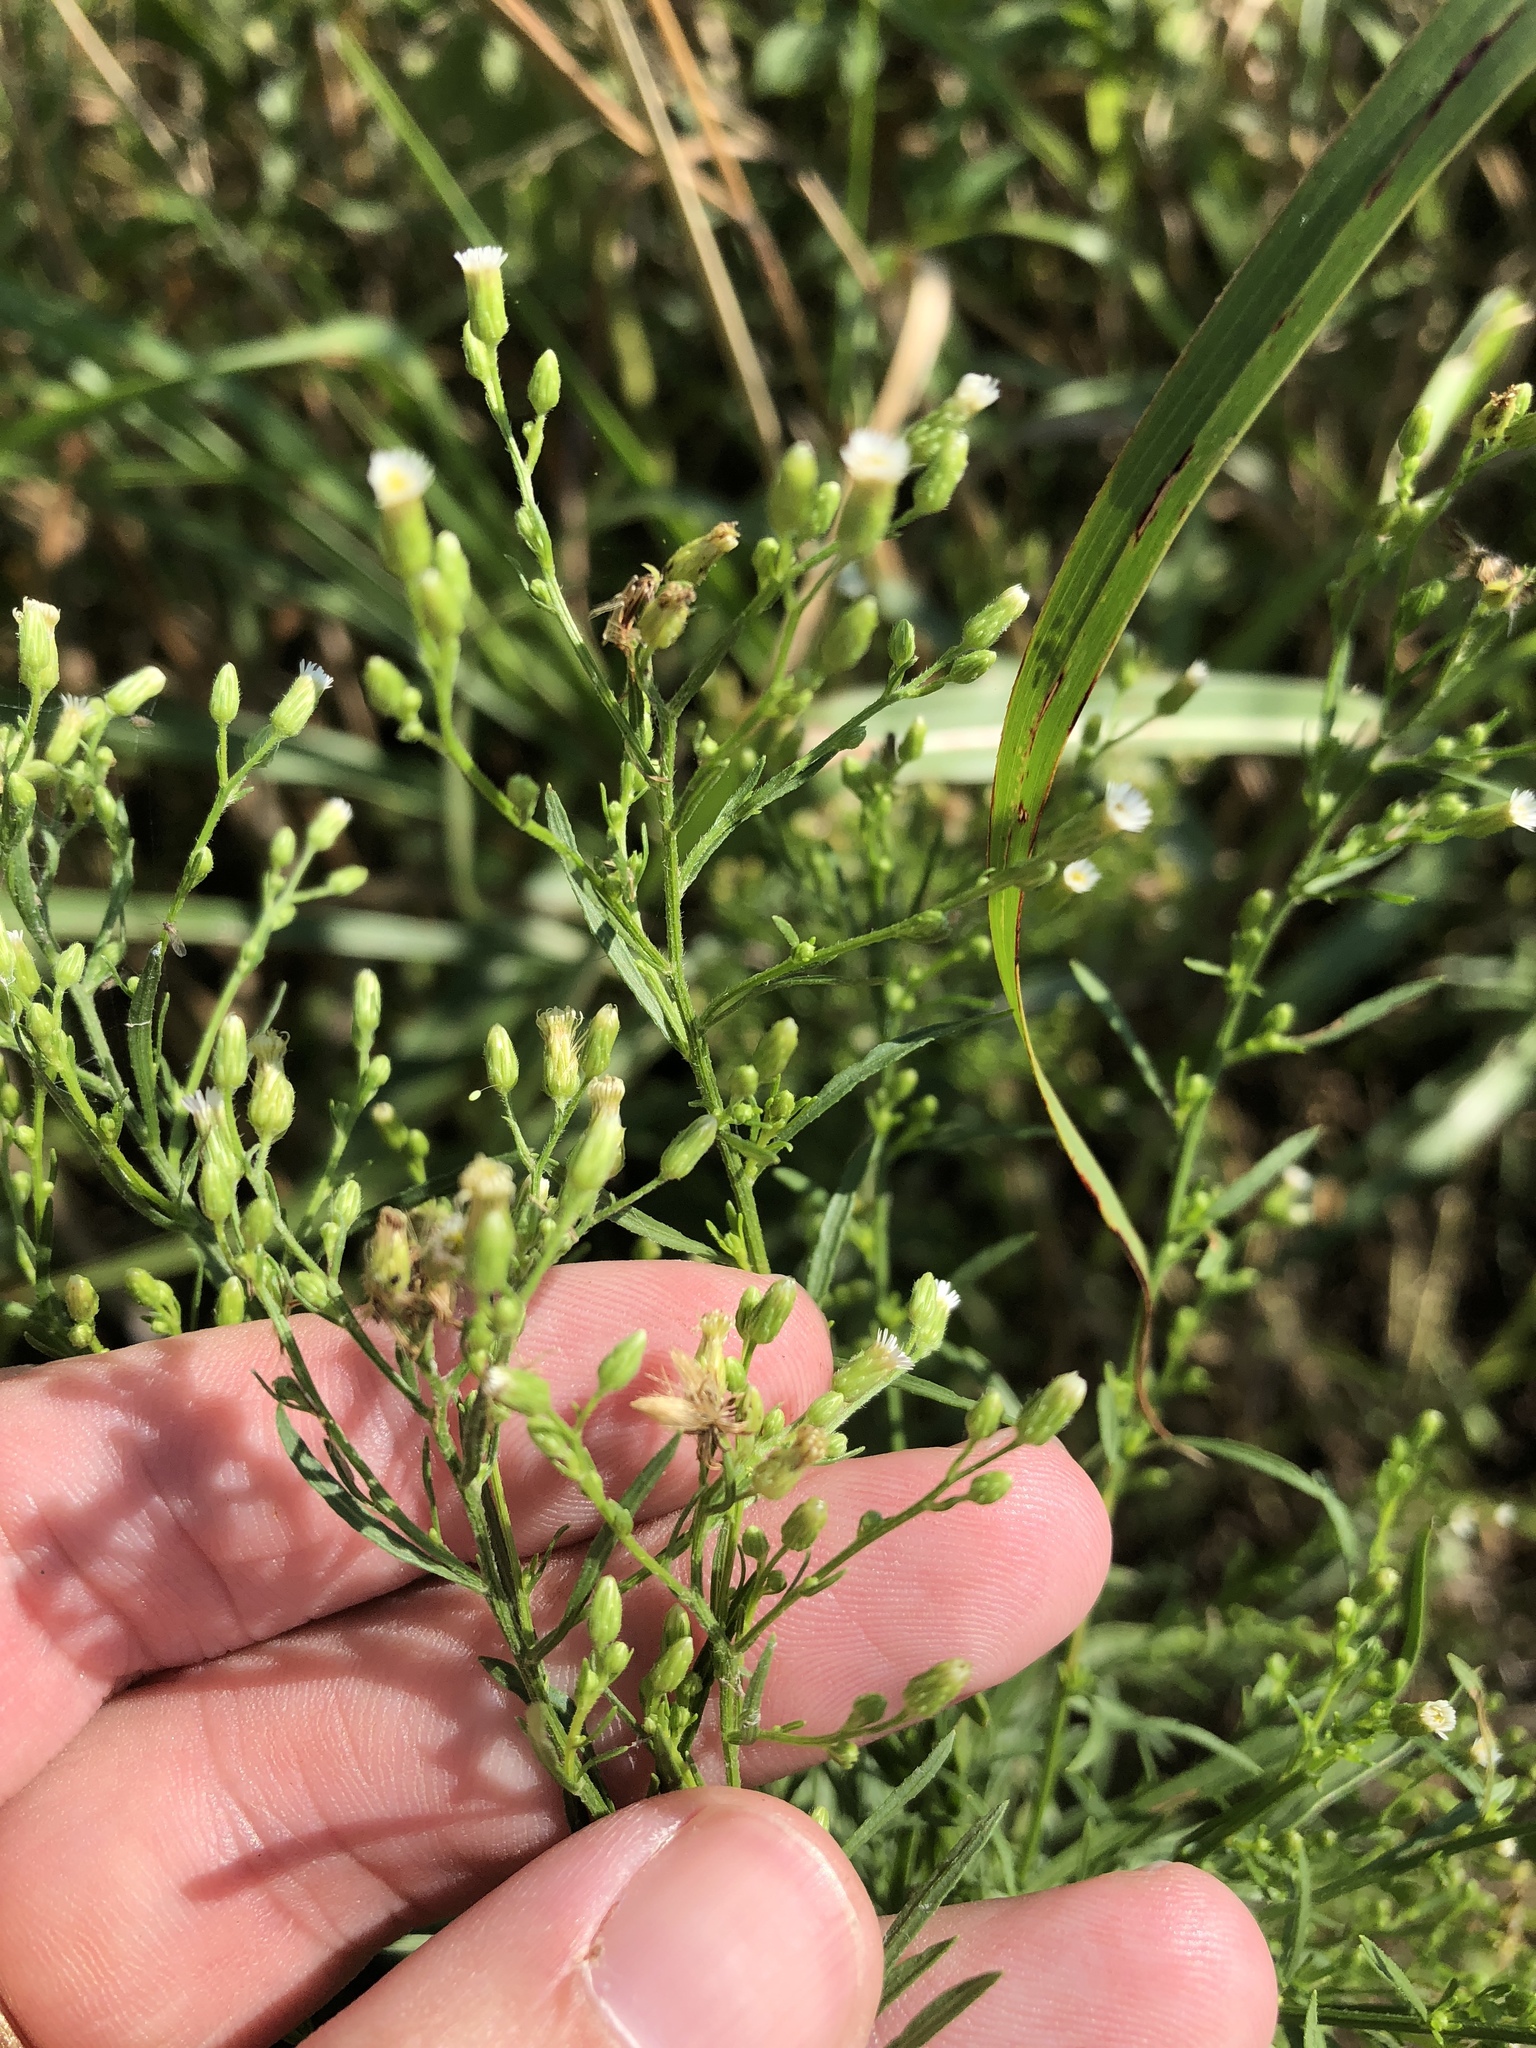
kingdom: Plantae
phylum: Tracheophyta
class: Magnoliopsida
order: Asterales
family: Asteraceae
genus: Erigeron
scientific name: Erigeron canadensis
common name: Canadian fleabane
